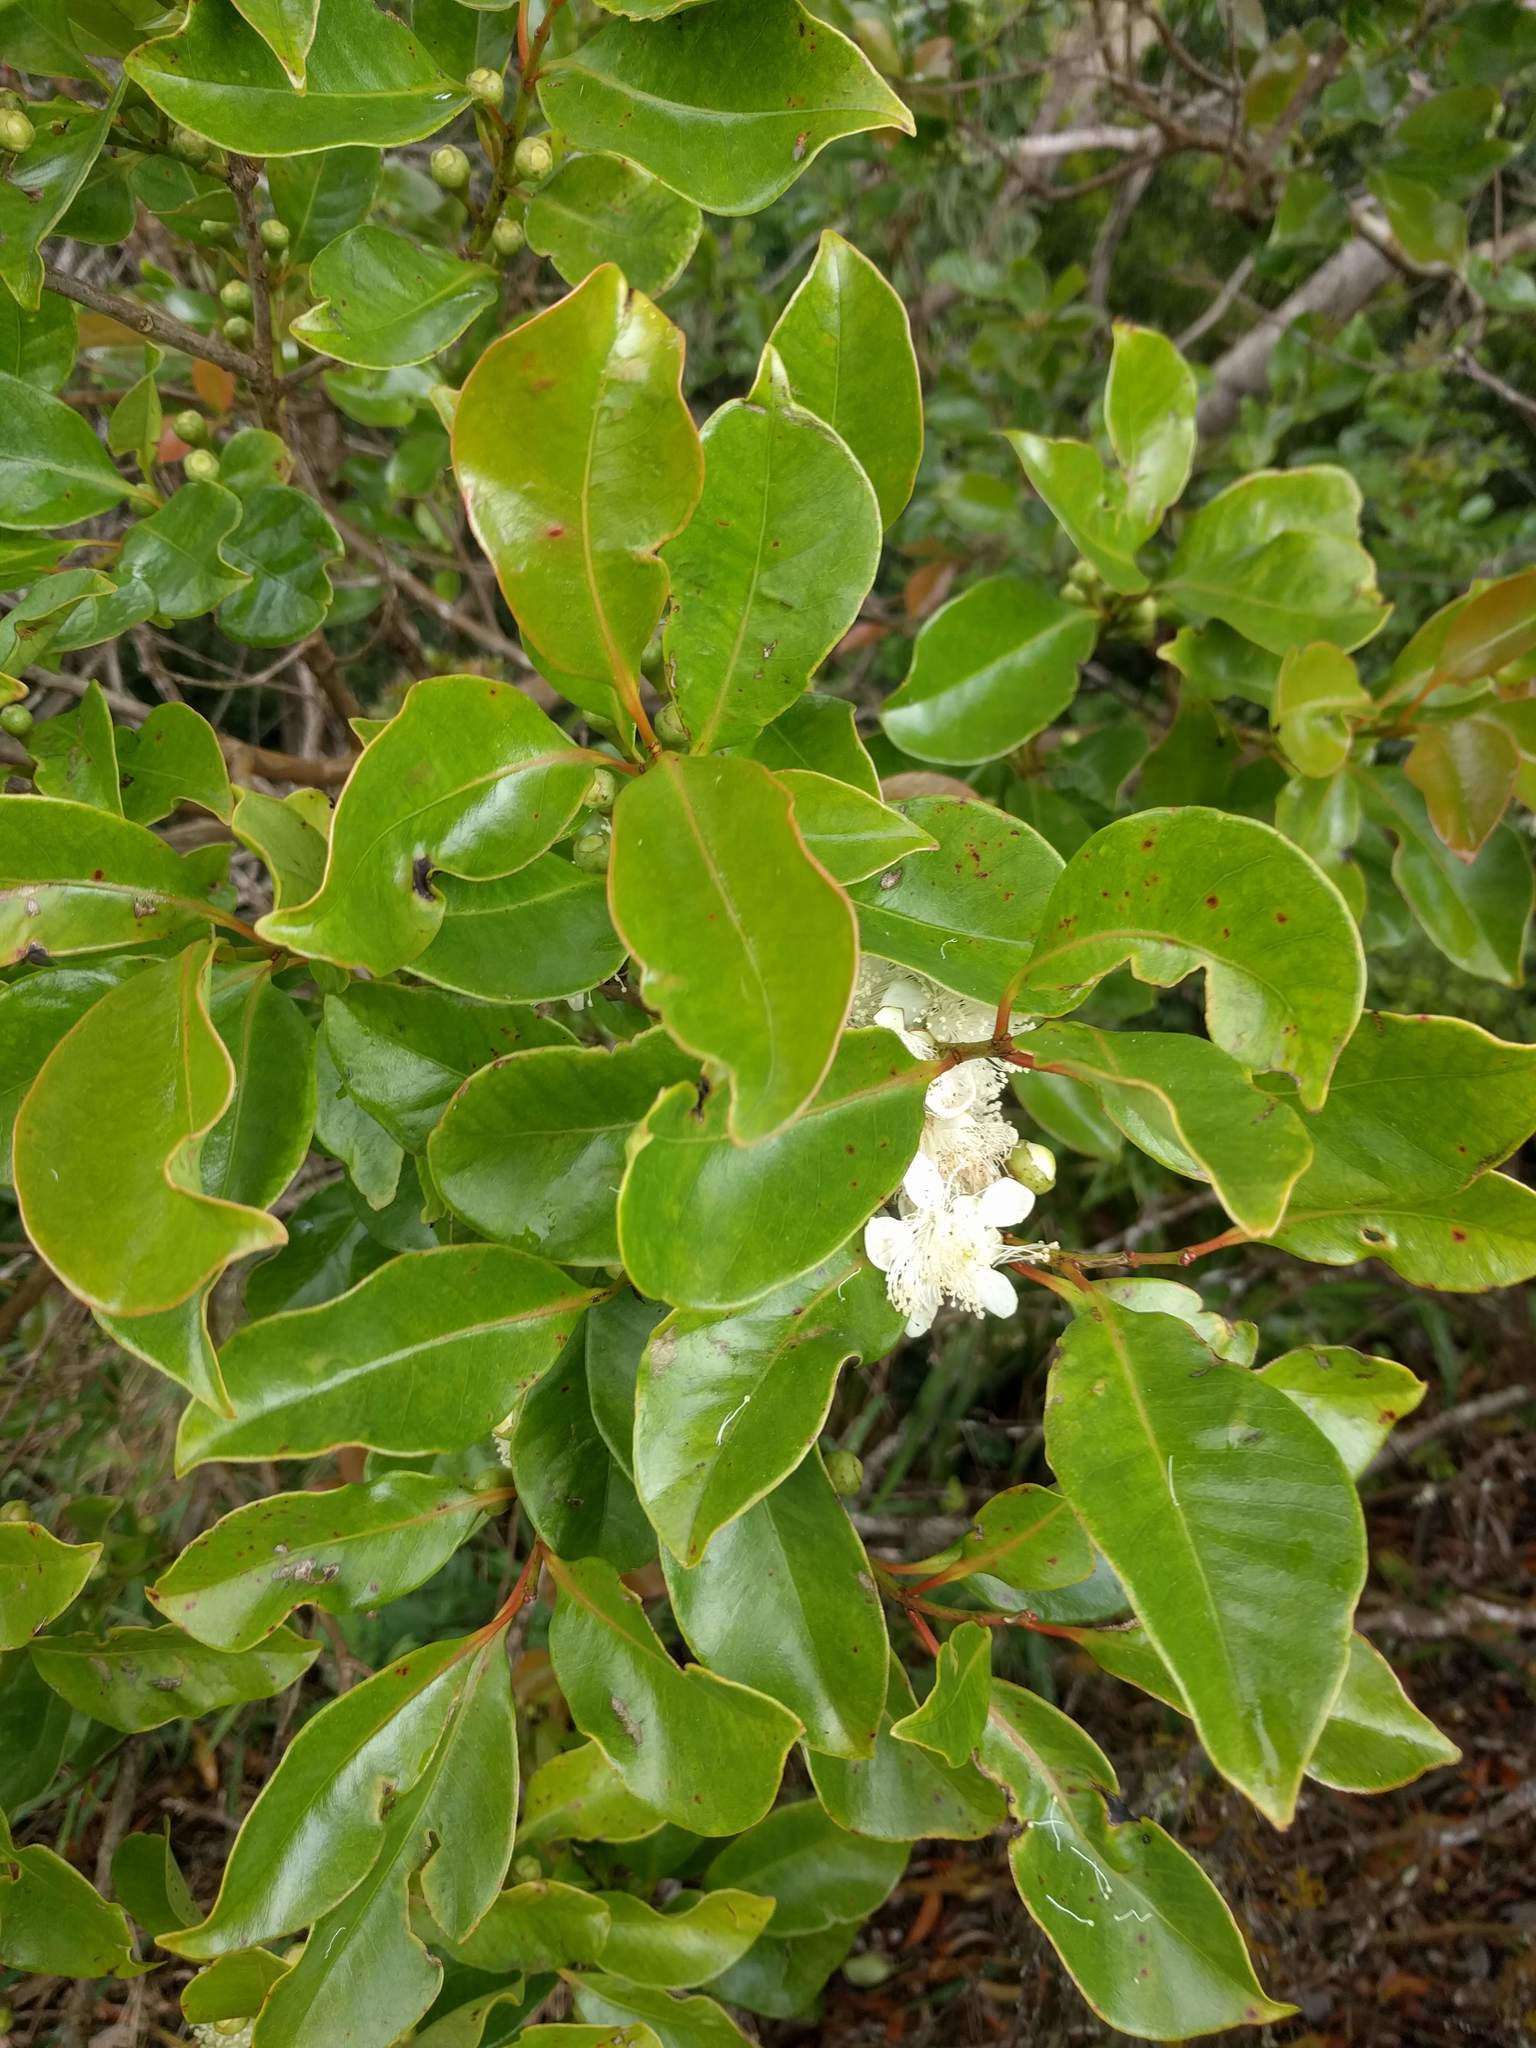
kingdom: Plantae
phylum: Tracheophyta
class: Magnoliopsida
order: Myrtales
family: Myrtaceae
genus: Psidium
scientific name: Psidium cattleianum
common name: Strawberry guava
